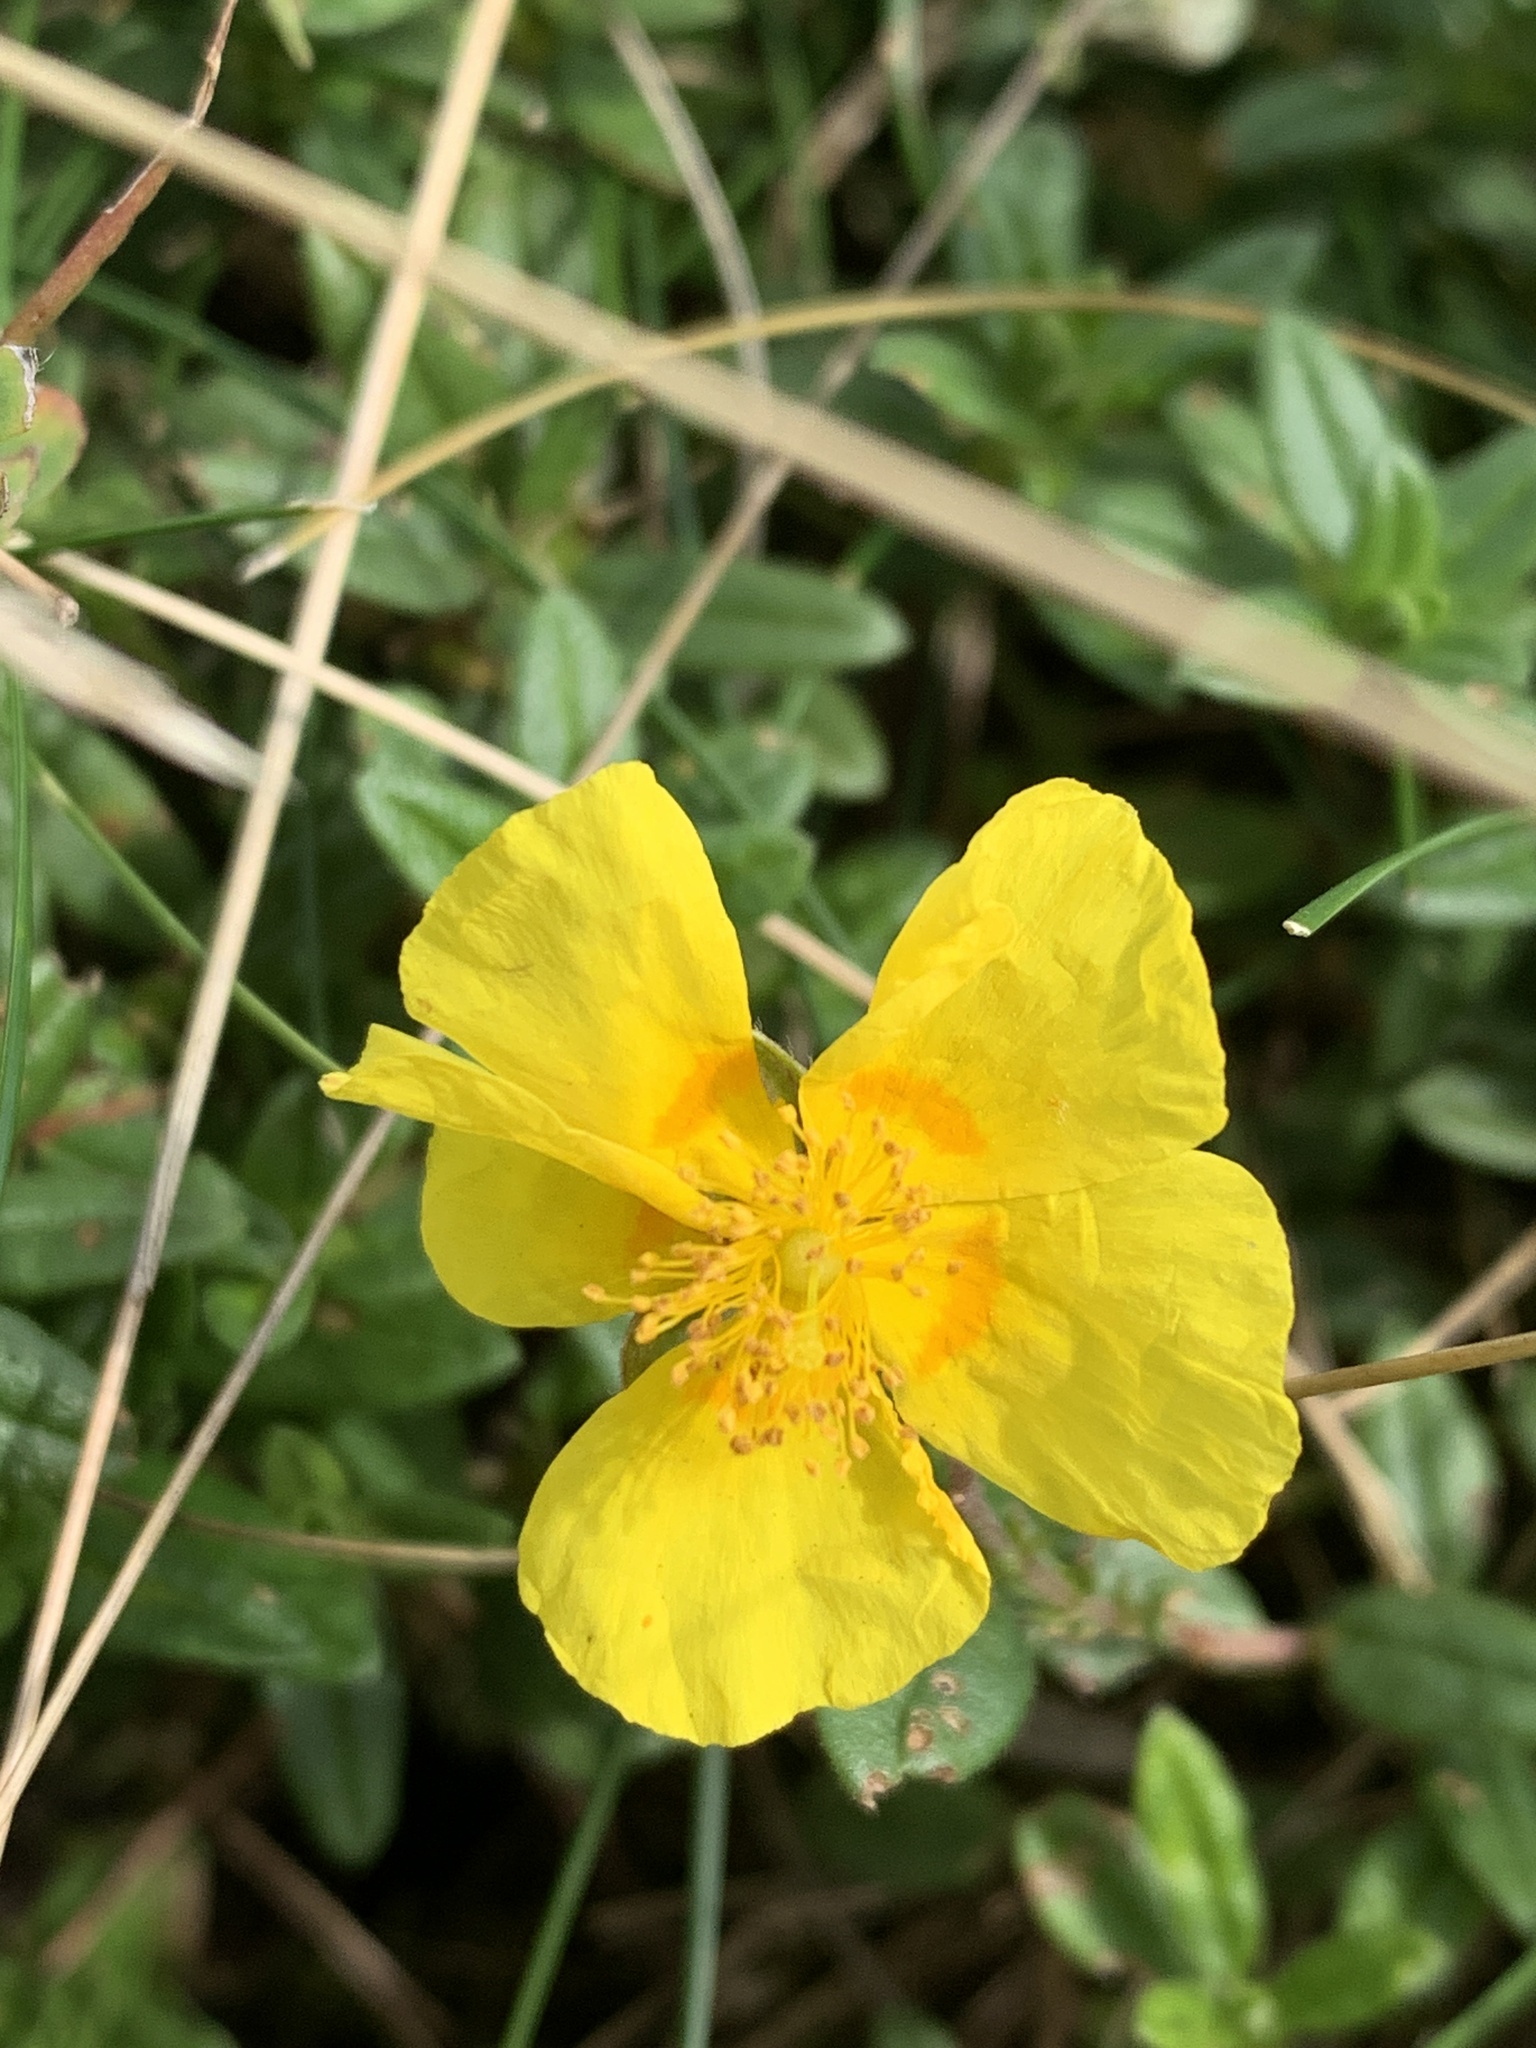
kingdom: Plantae
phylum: Tracheophyta
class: Magnoliopsida
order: Malvales
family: Cistaceae
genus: Helianthemum
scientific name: Helianthemum nummularium
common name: Common rock-rose
